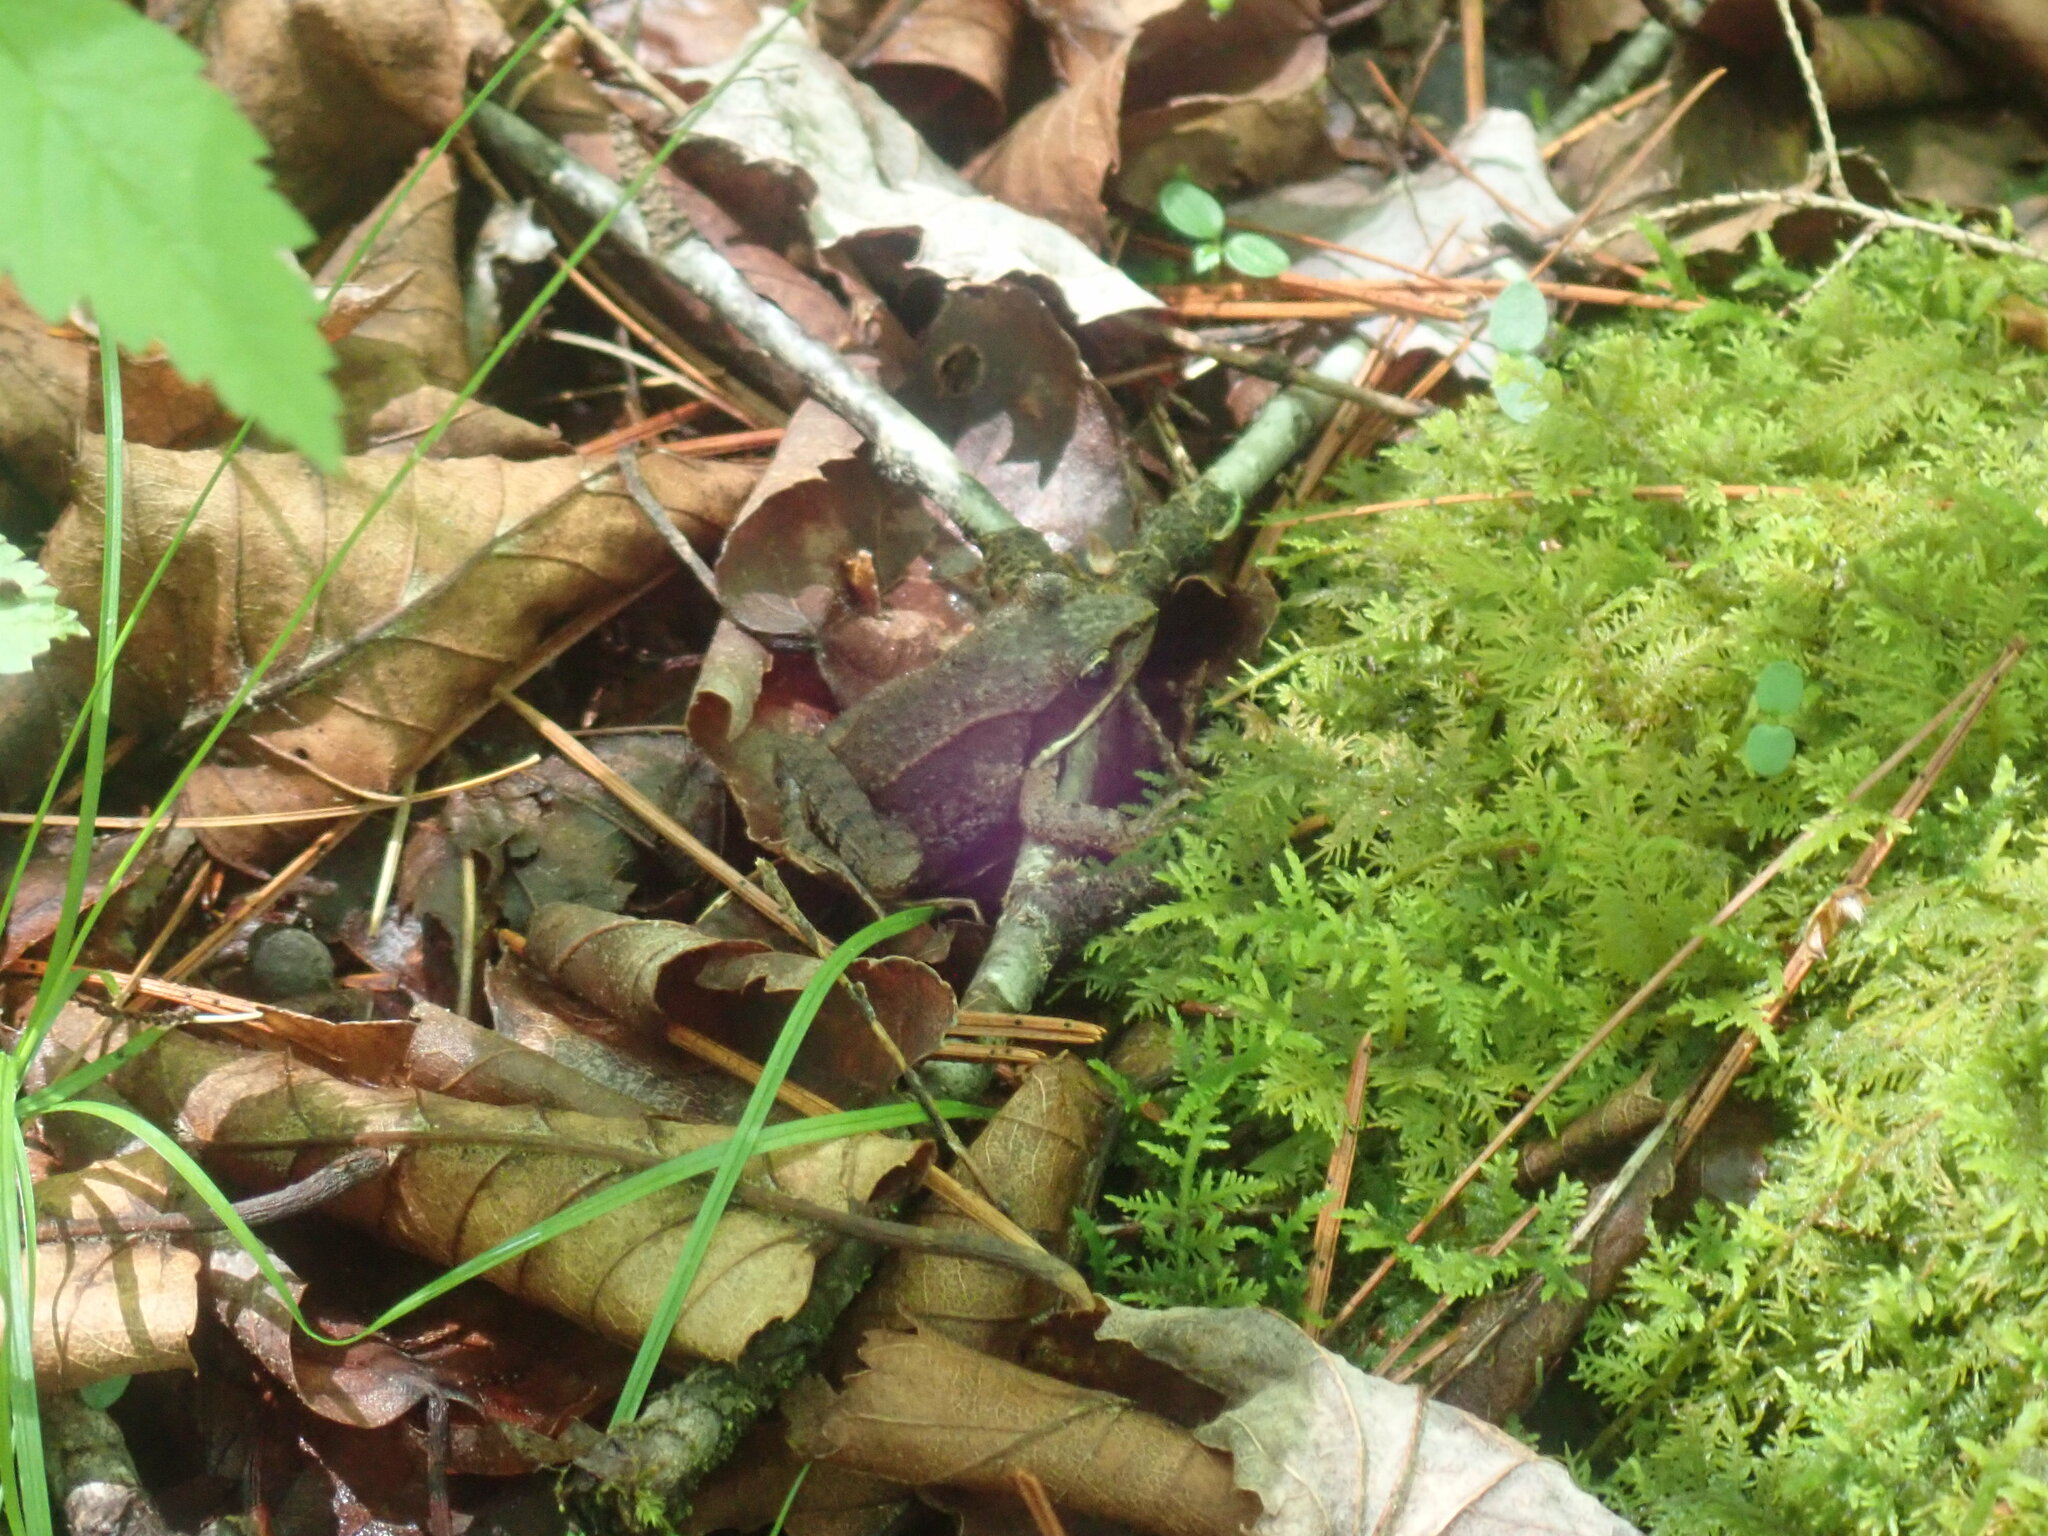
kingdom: Animalia
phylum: Chordata
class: Amphibia
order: Anura
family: Ranidae
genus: Lithobates
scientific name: Lithobates sylvaticus
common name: Wood frog
